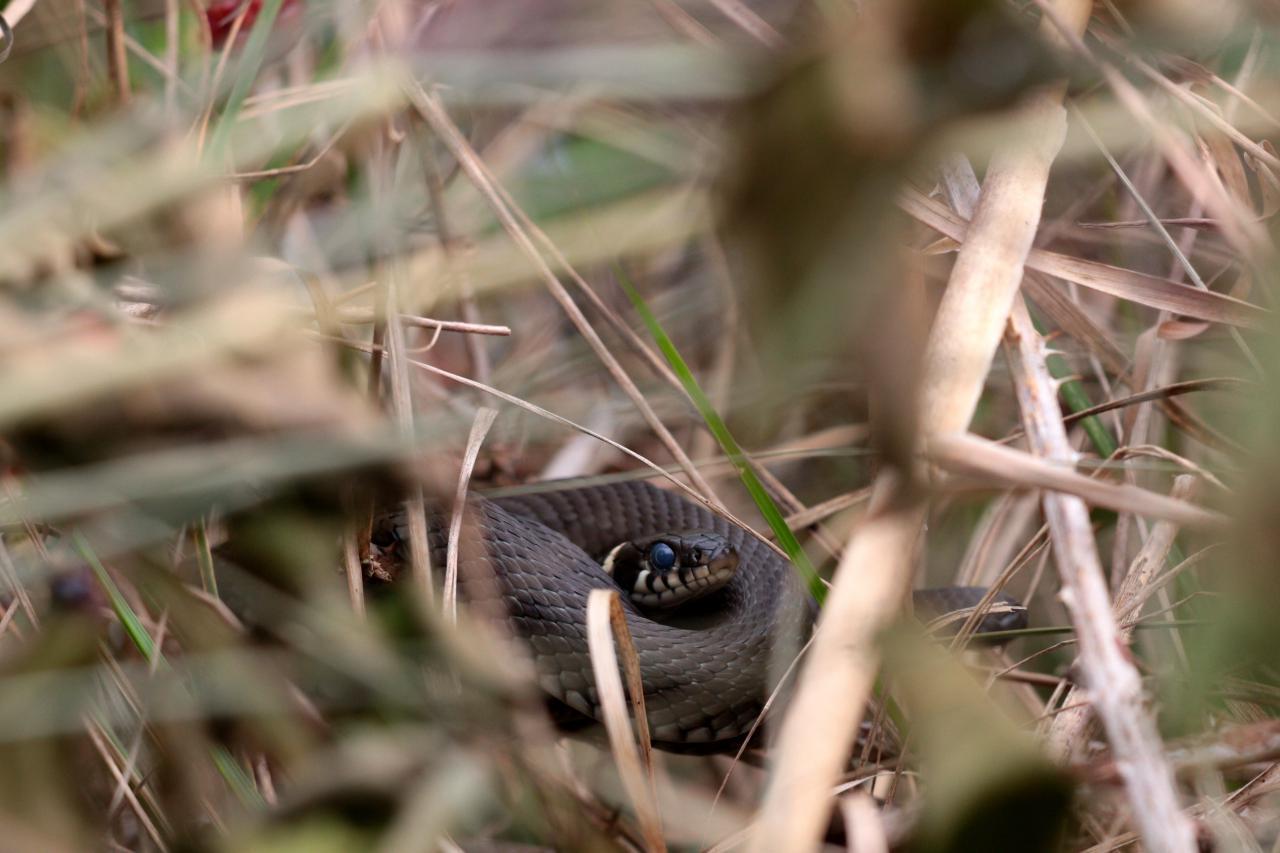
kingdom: Animalia
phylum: Chordata
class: Squamata
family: Colubridae
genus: Natrix
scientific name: Natrix natrix
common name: Grass snake
